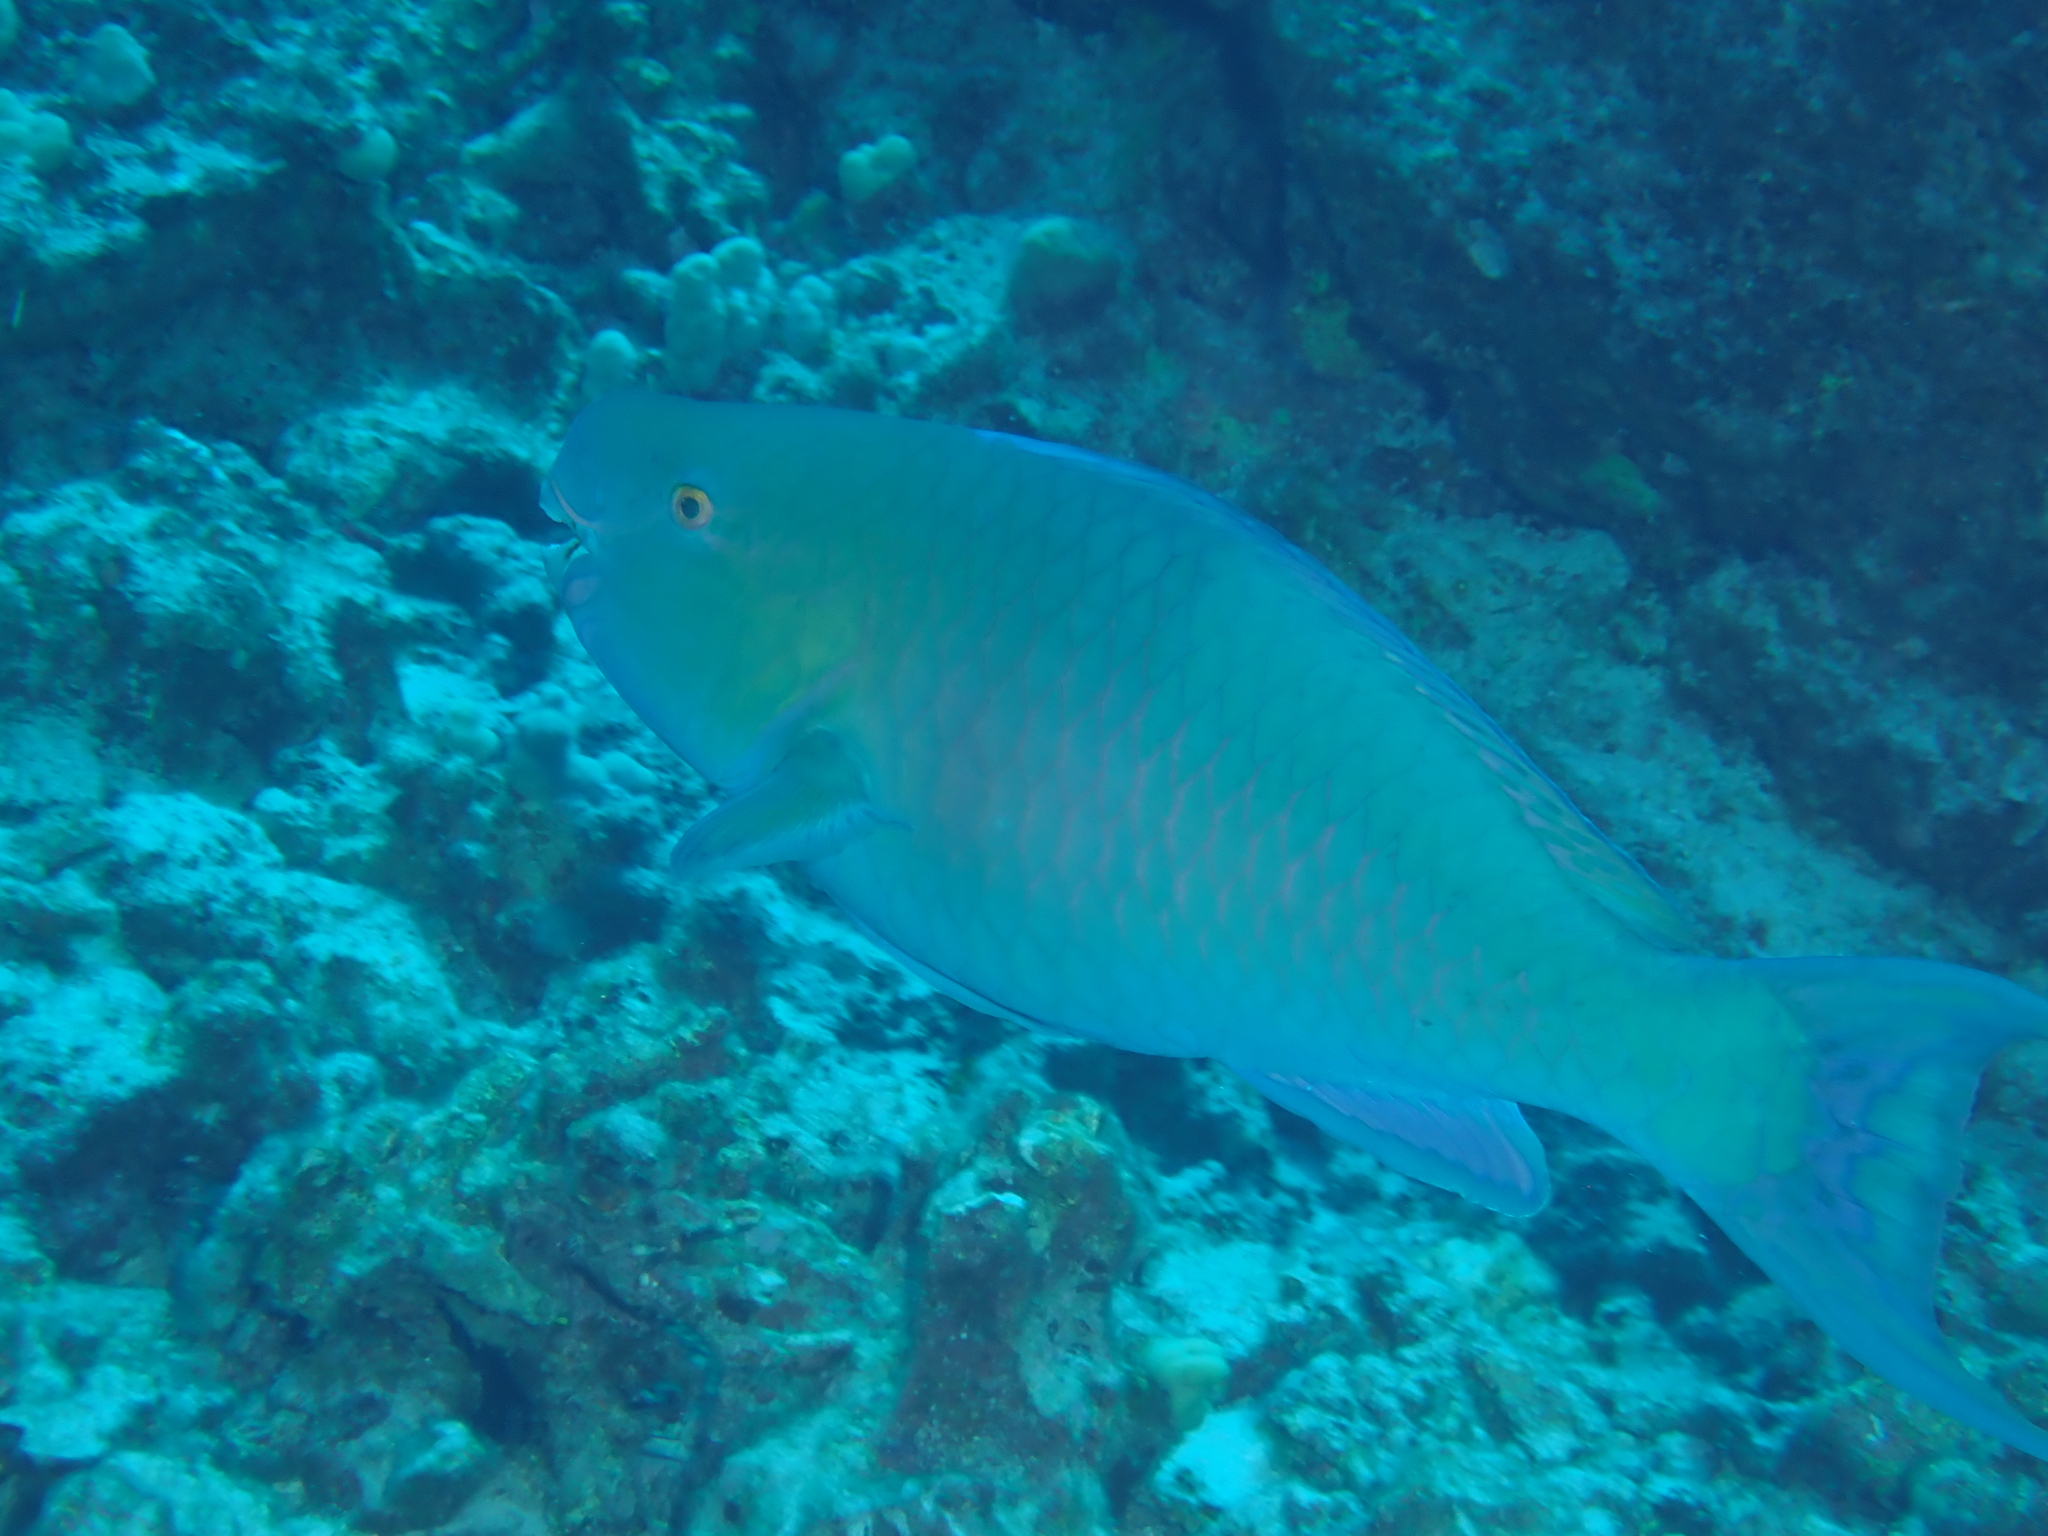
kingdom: Animalia
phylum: Chordata
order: Perciformes
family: Scaridae
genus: Scarus
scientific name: Scarus rubroviolaceus
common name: Ember parrotfish
